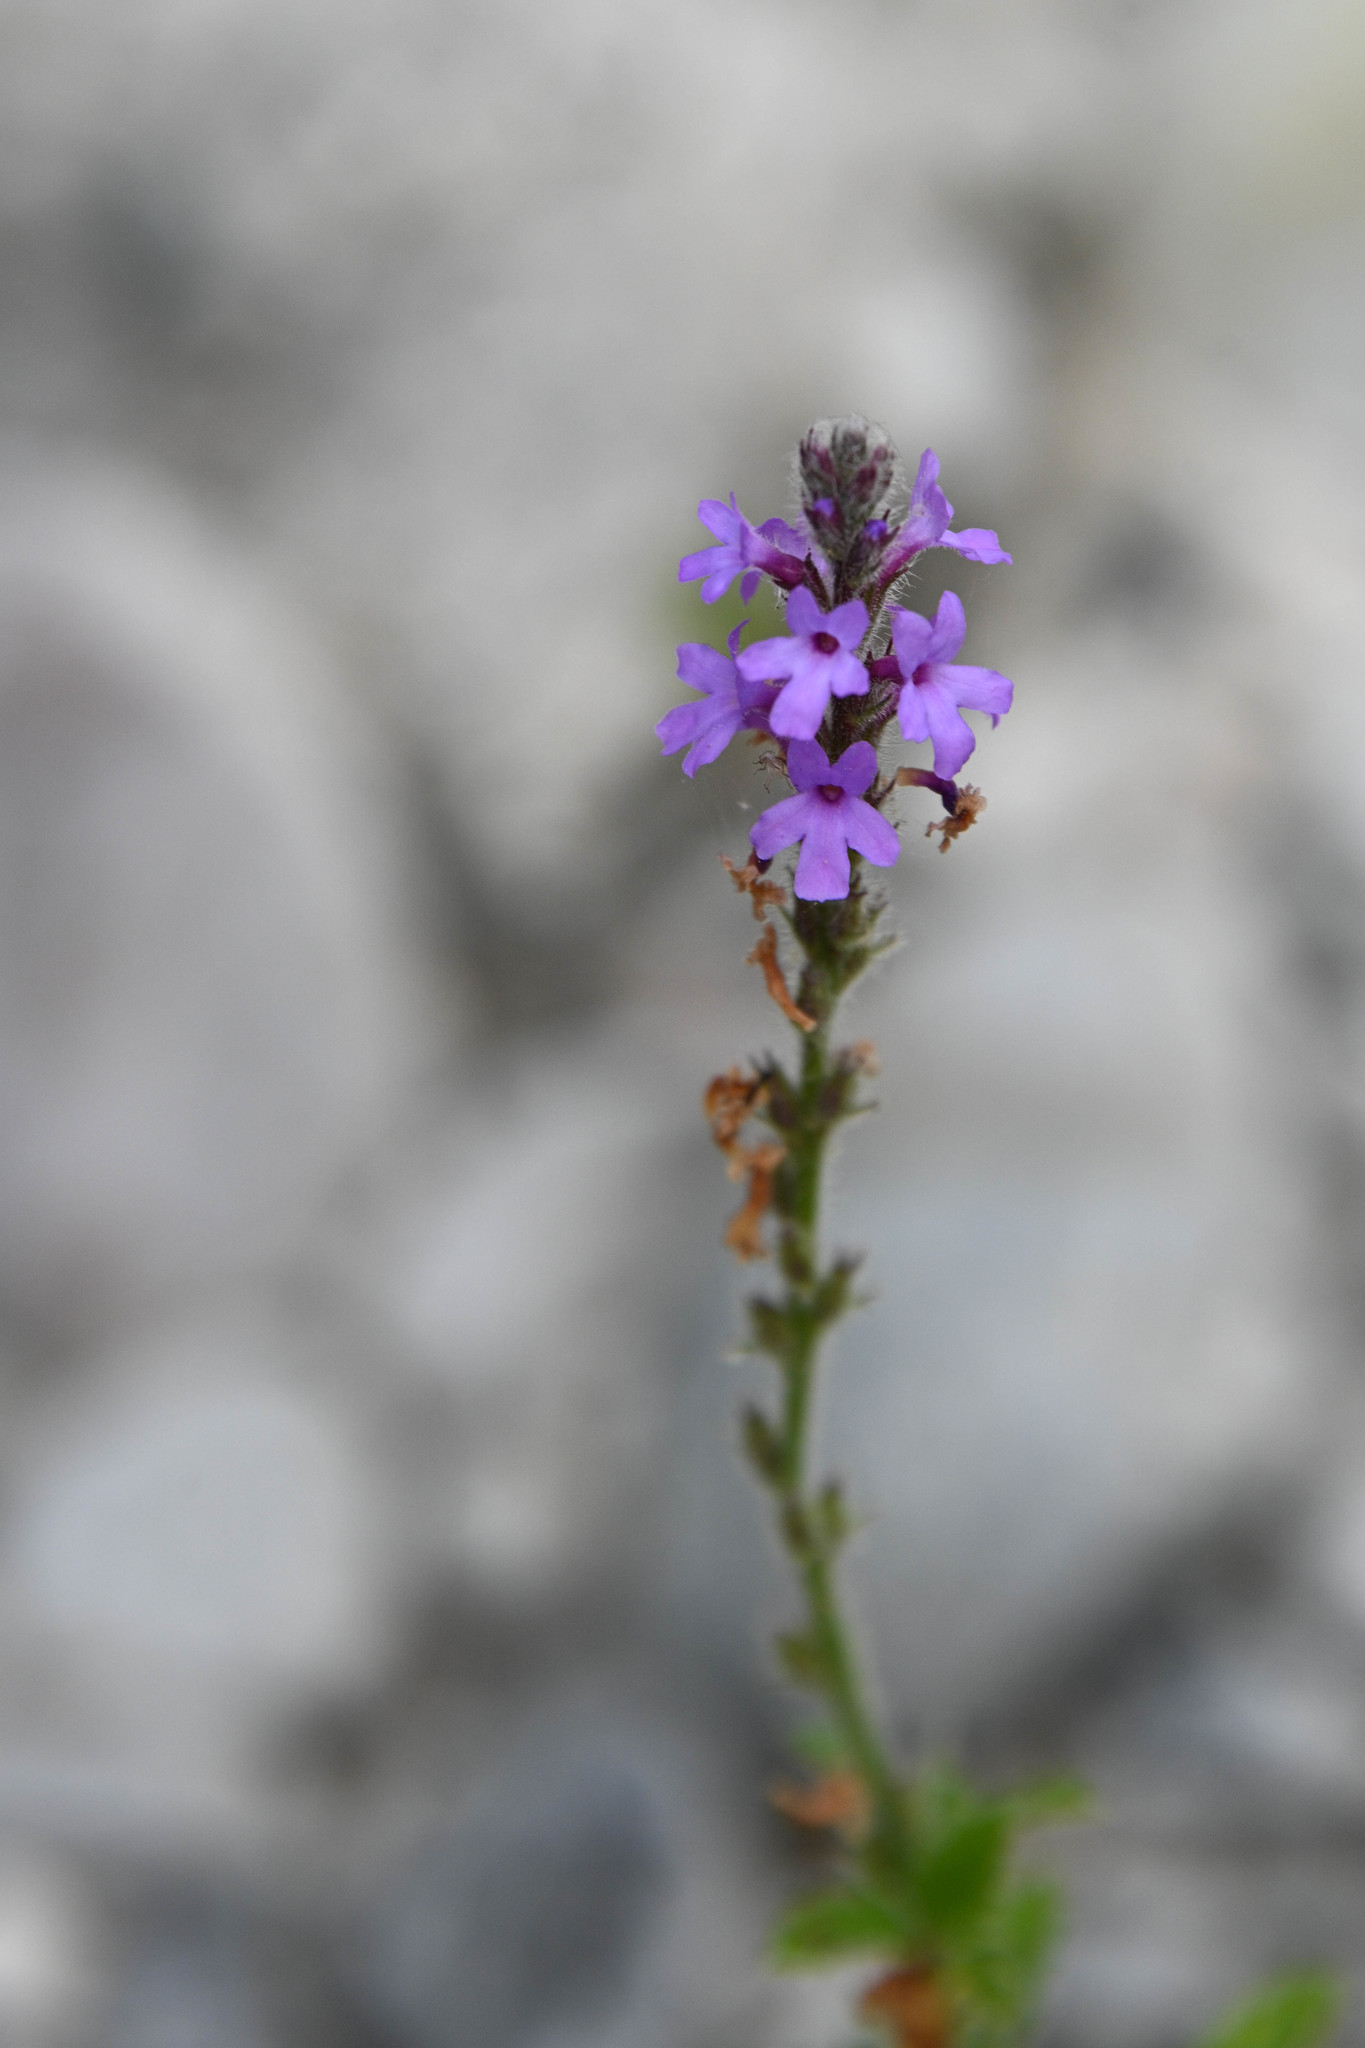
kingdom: Plantae
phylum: Tracheophyta
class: Magnoliopsida
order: Lamiales
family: Verbenaceae
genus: Verbena
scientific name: Verbena lasiostachys
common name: Vervain
